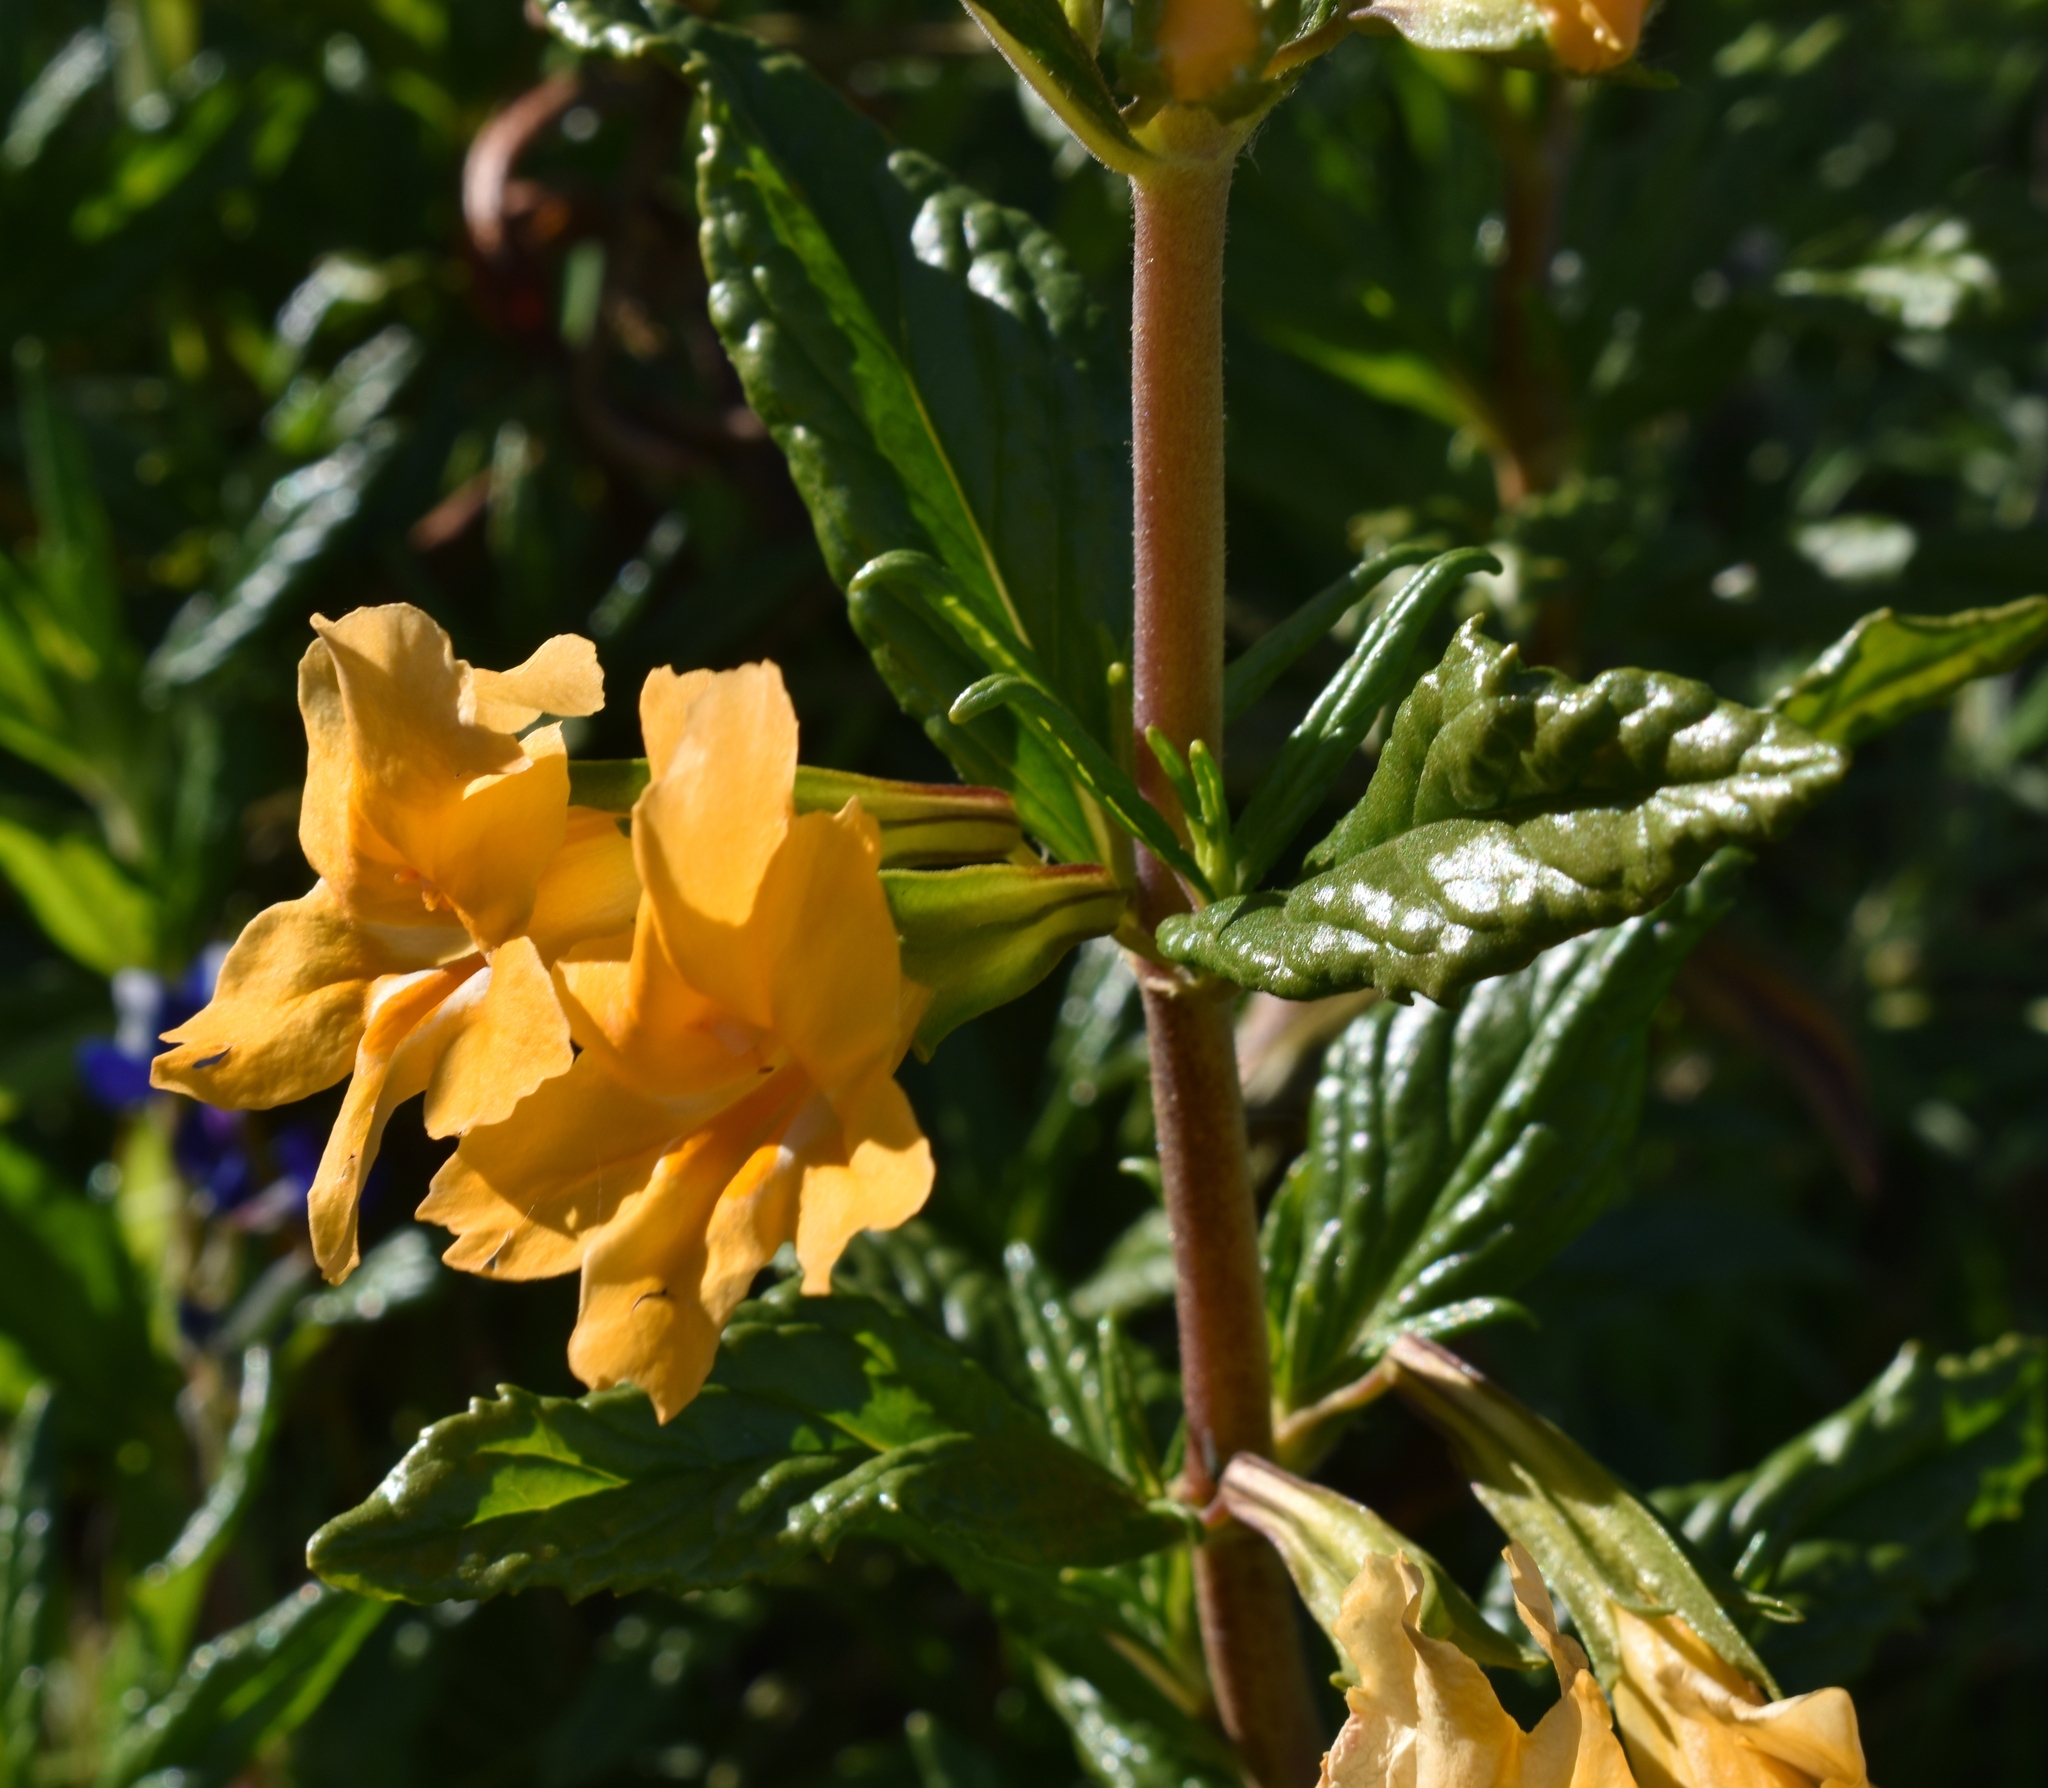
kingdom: Plantae
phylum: Tracheophyta
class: Magnoliopsida
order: Lamiales
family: Phrymaceae
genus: Diplacus
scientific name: Diplacus aurantiacus
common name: Bush monkey-flower
